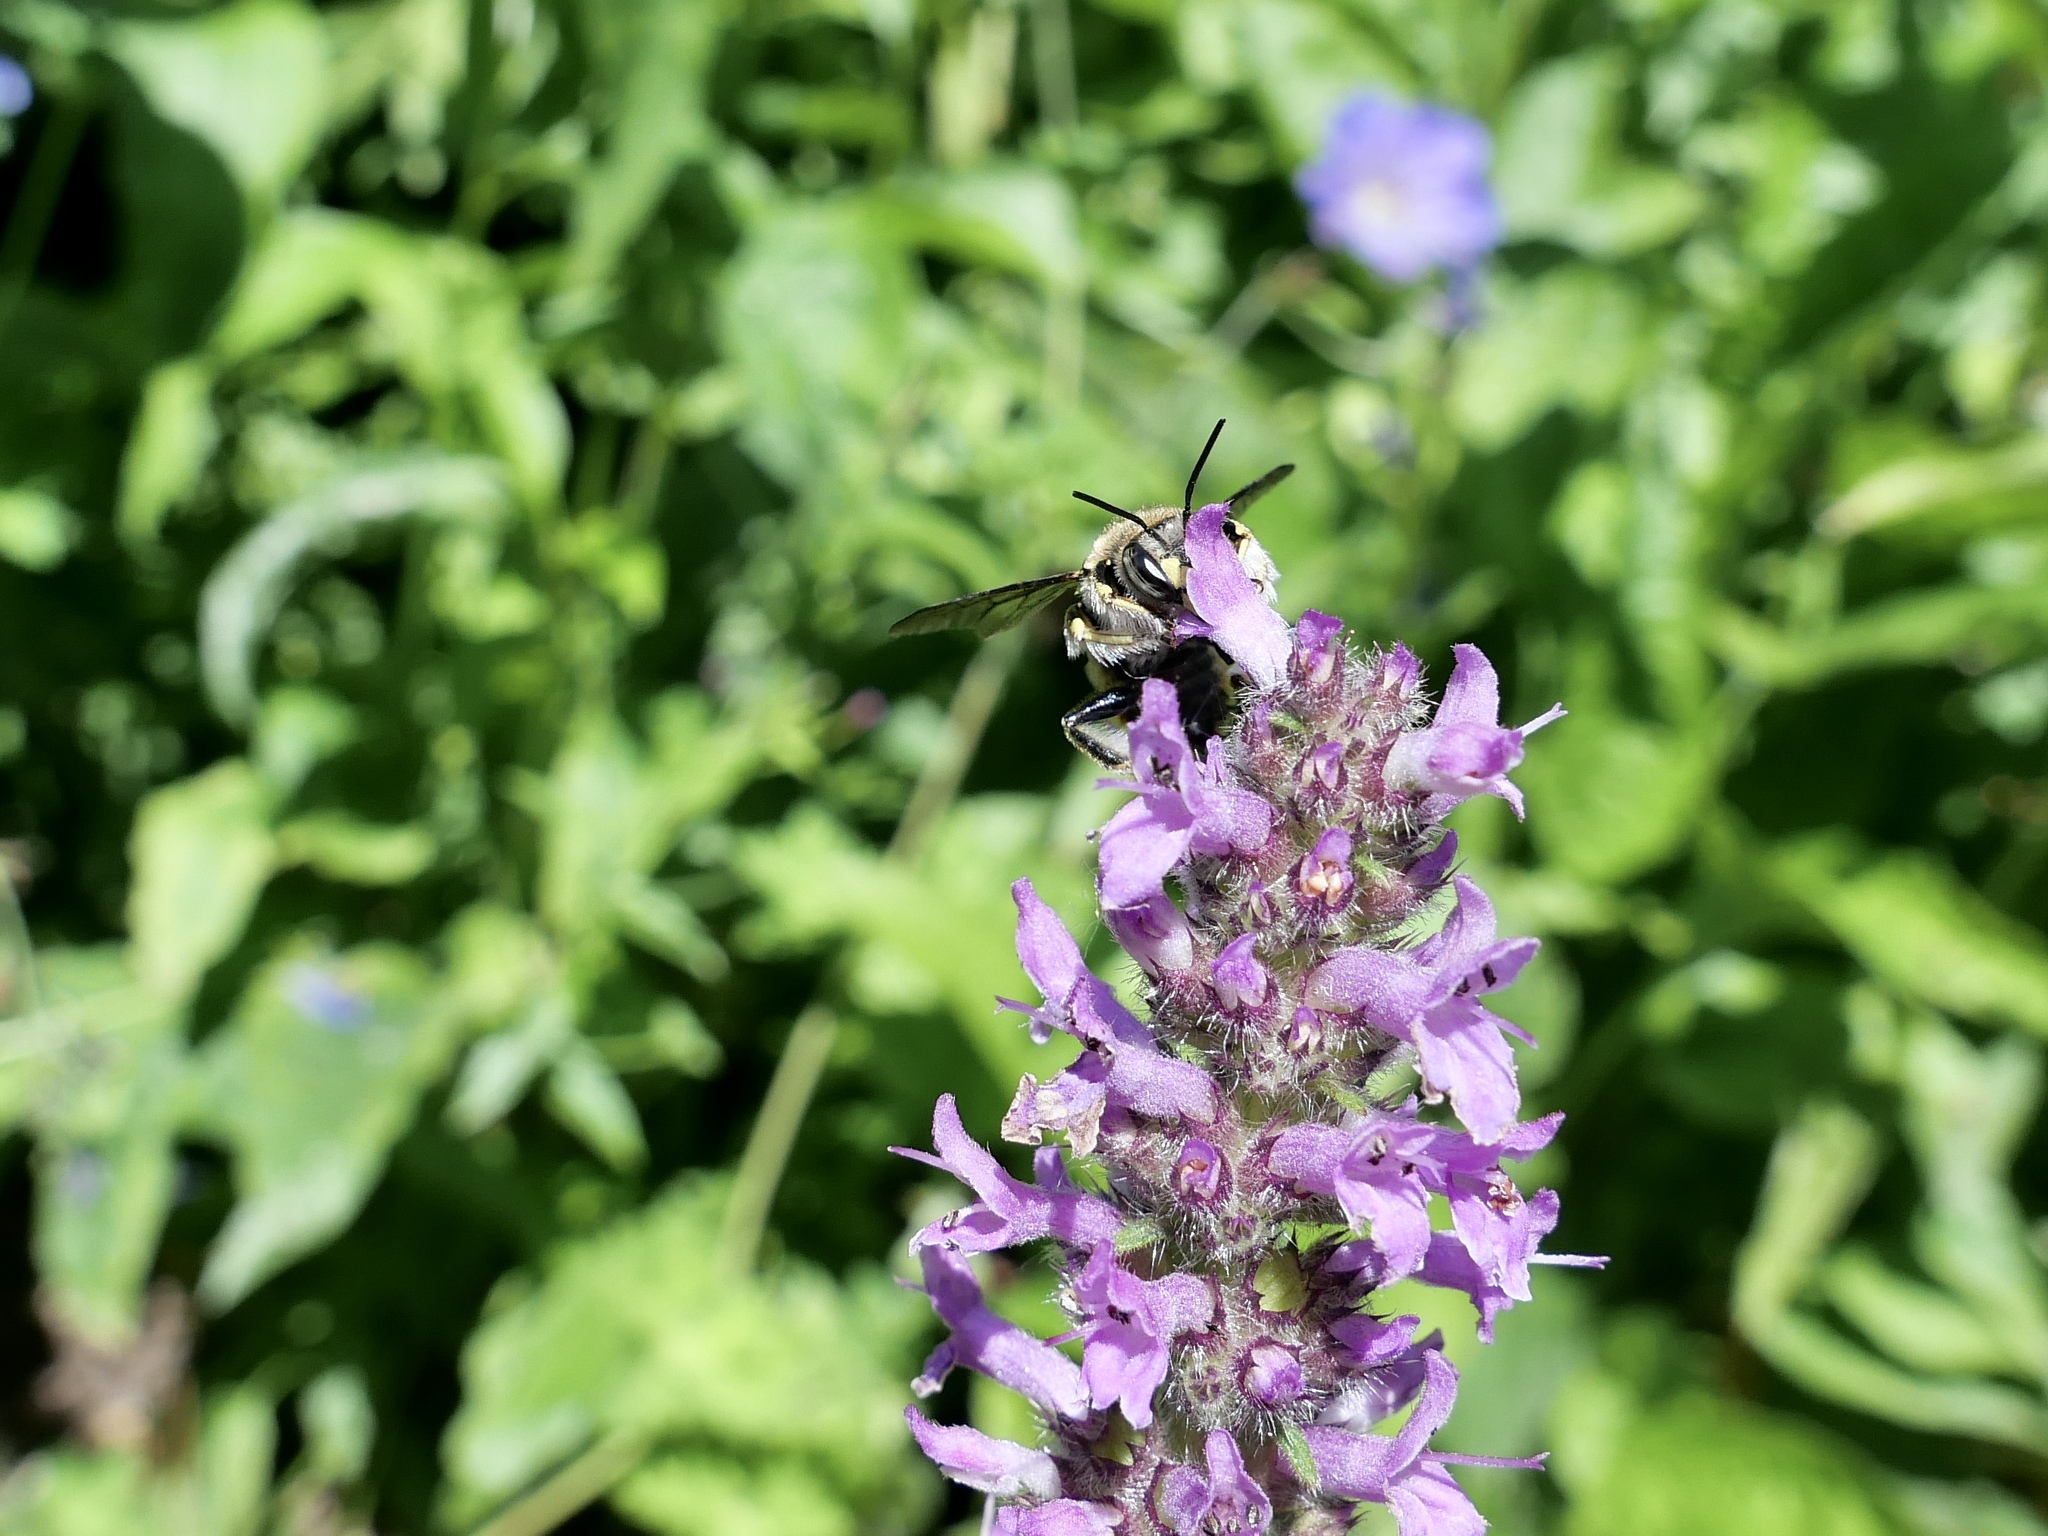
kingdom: Animalia
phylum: Arthropoda
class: Insecta
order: Hymenoptera
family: Megachilidae
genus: Anthidium
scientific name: Anthidium manicatum
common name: Wool carder bee
